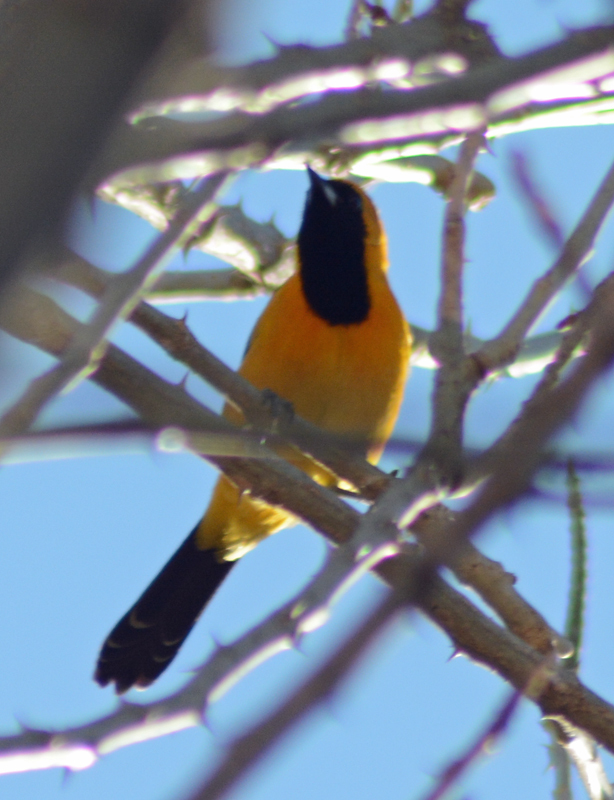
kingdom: Animalia
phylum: Chordata
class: Aves
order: Passeriformes
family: Icteridae
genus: Icterus
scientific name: Icterus cucullatus
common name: Hooded oriole
